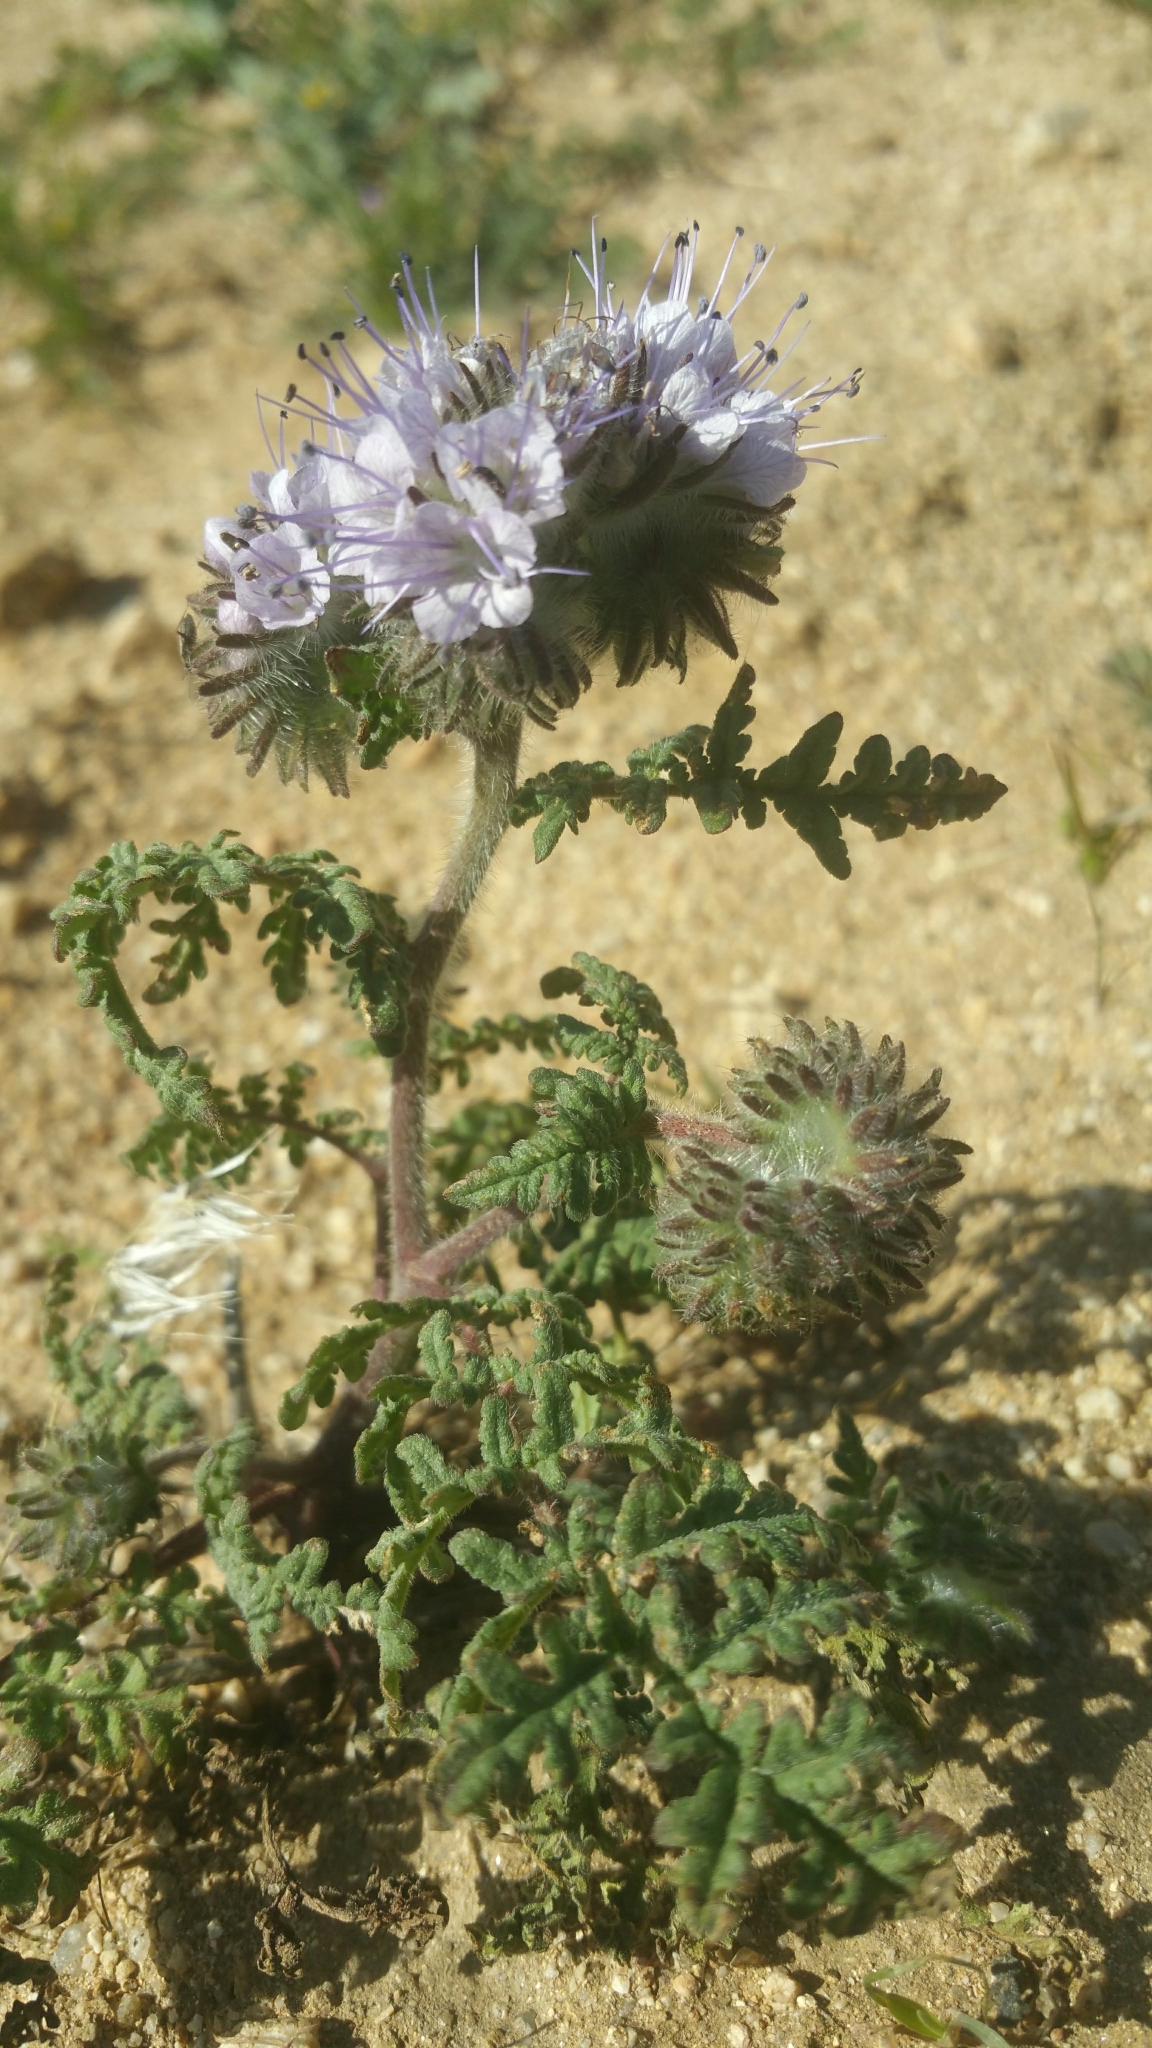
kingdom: Plantae
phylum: Tracheophyta
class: Magnoliopsida
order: Boraginales
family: Hydrophyllaceae
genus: Phacelia
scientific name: Phacelia tanacetifolia
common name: Phacelia
